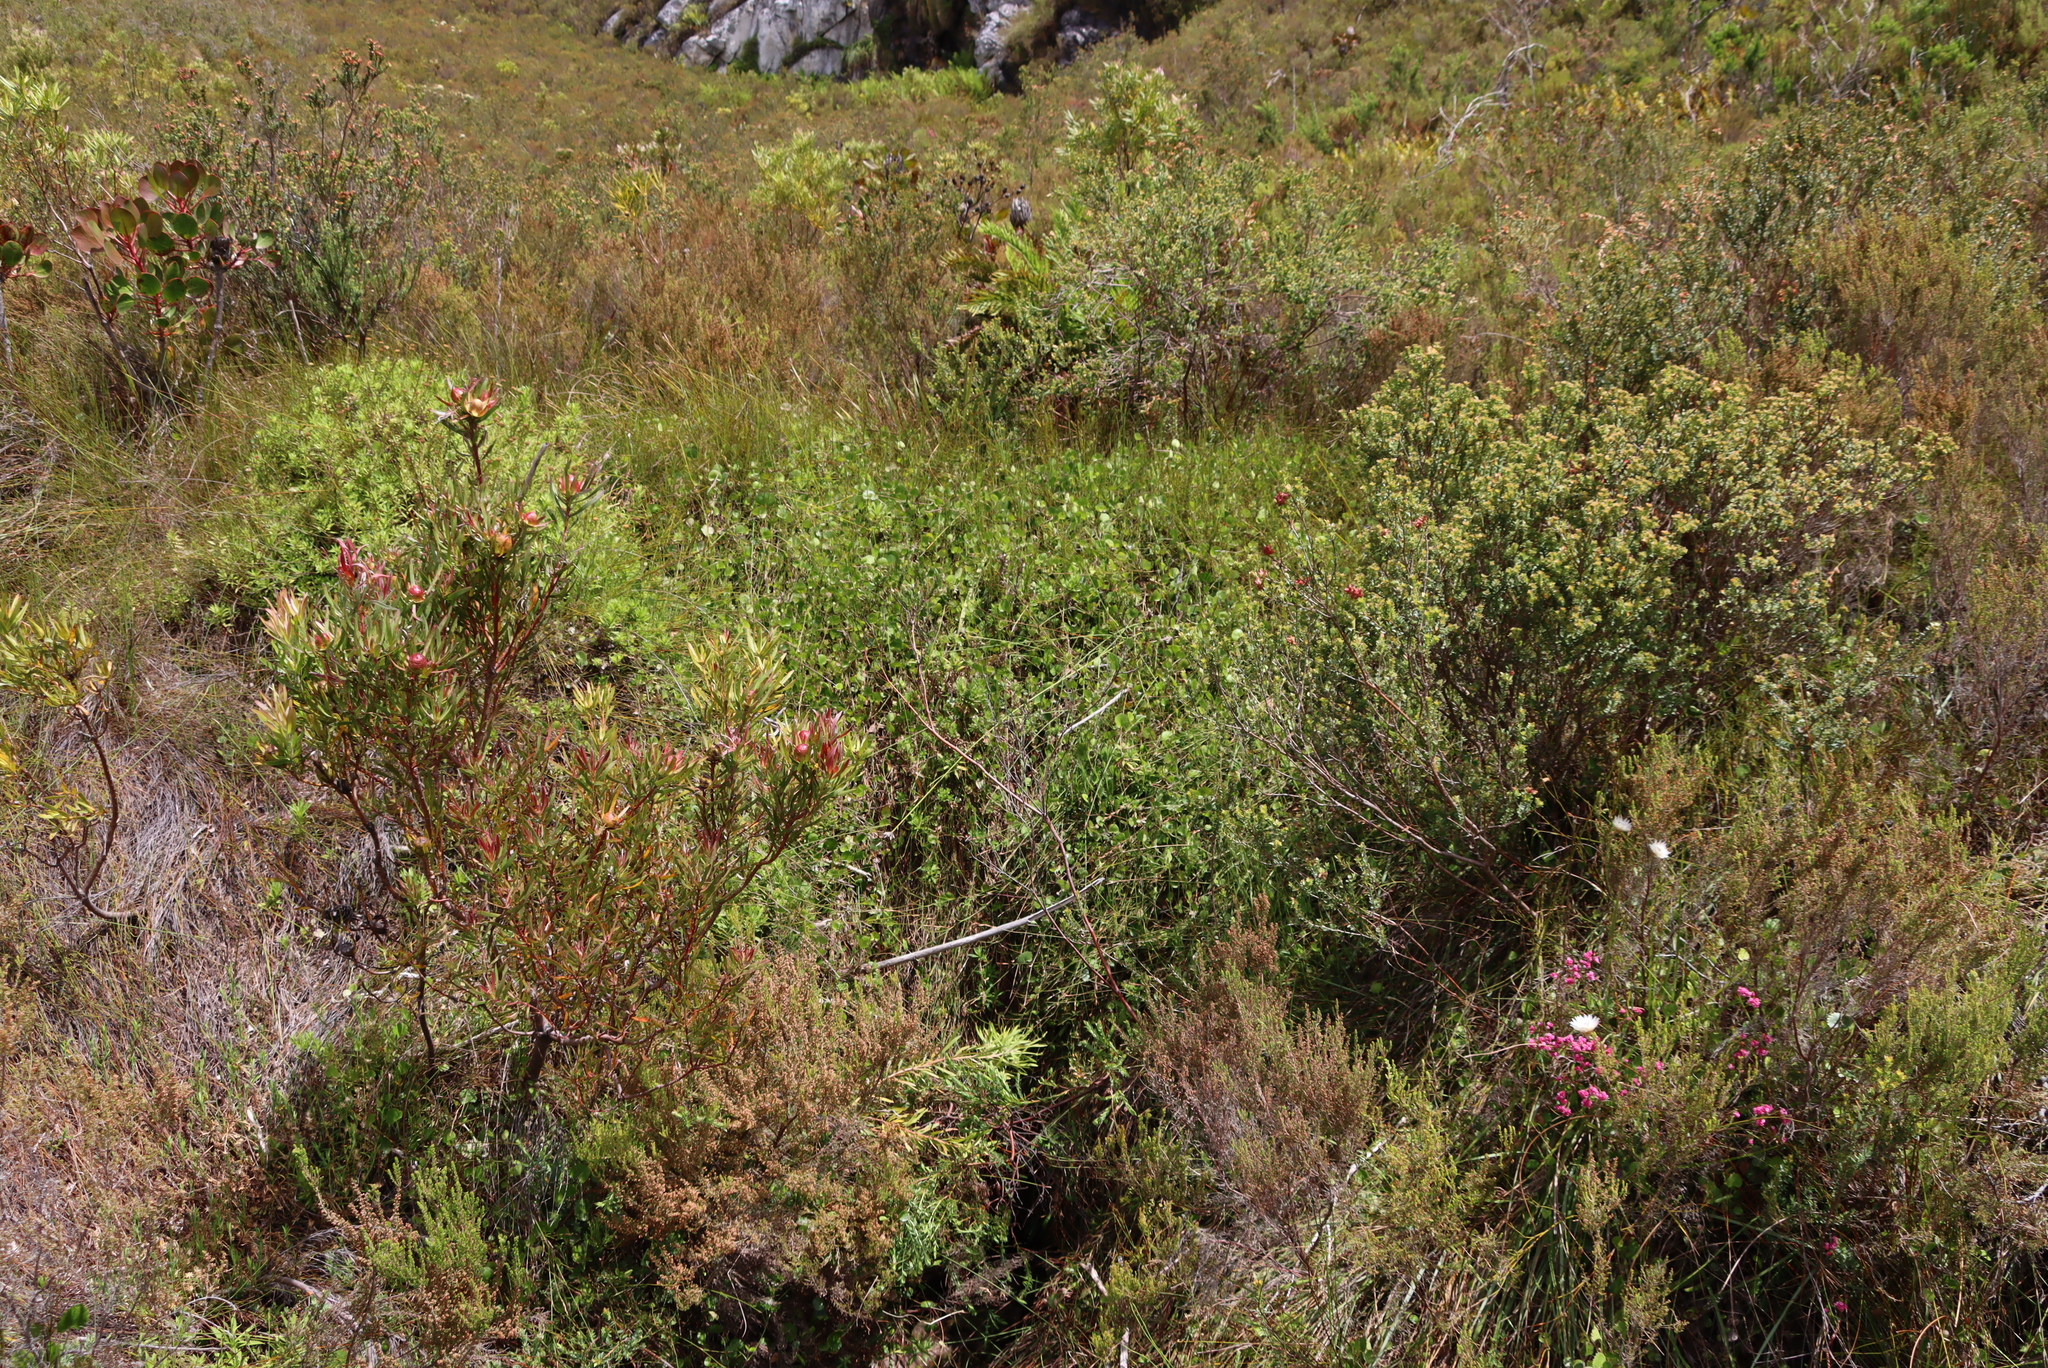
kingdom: Plantae
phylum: Tracheophyta
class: Magnoliopsida
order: Apiales
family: Apiaceae
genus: Centella
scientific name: Centella eriantha
